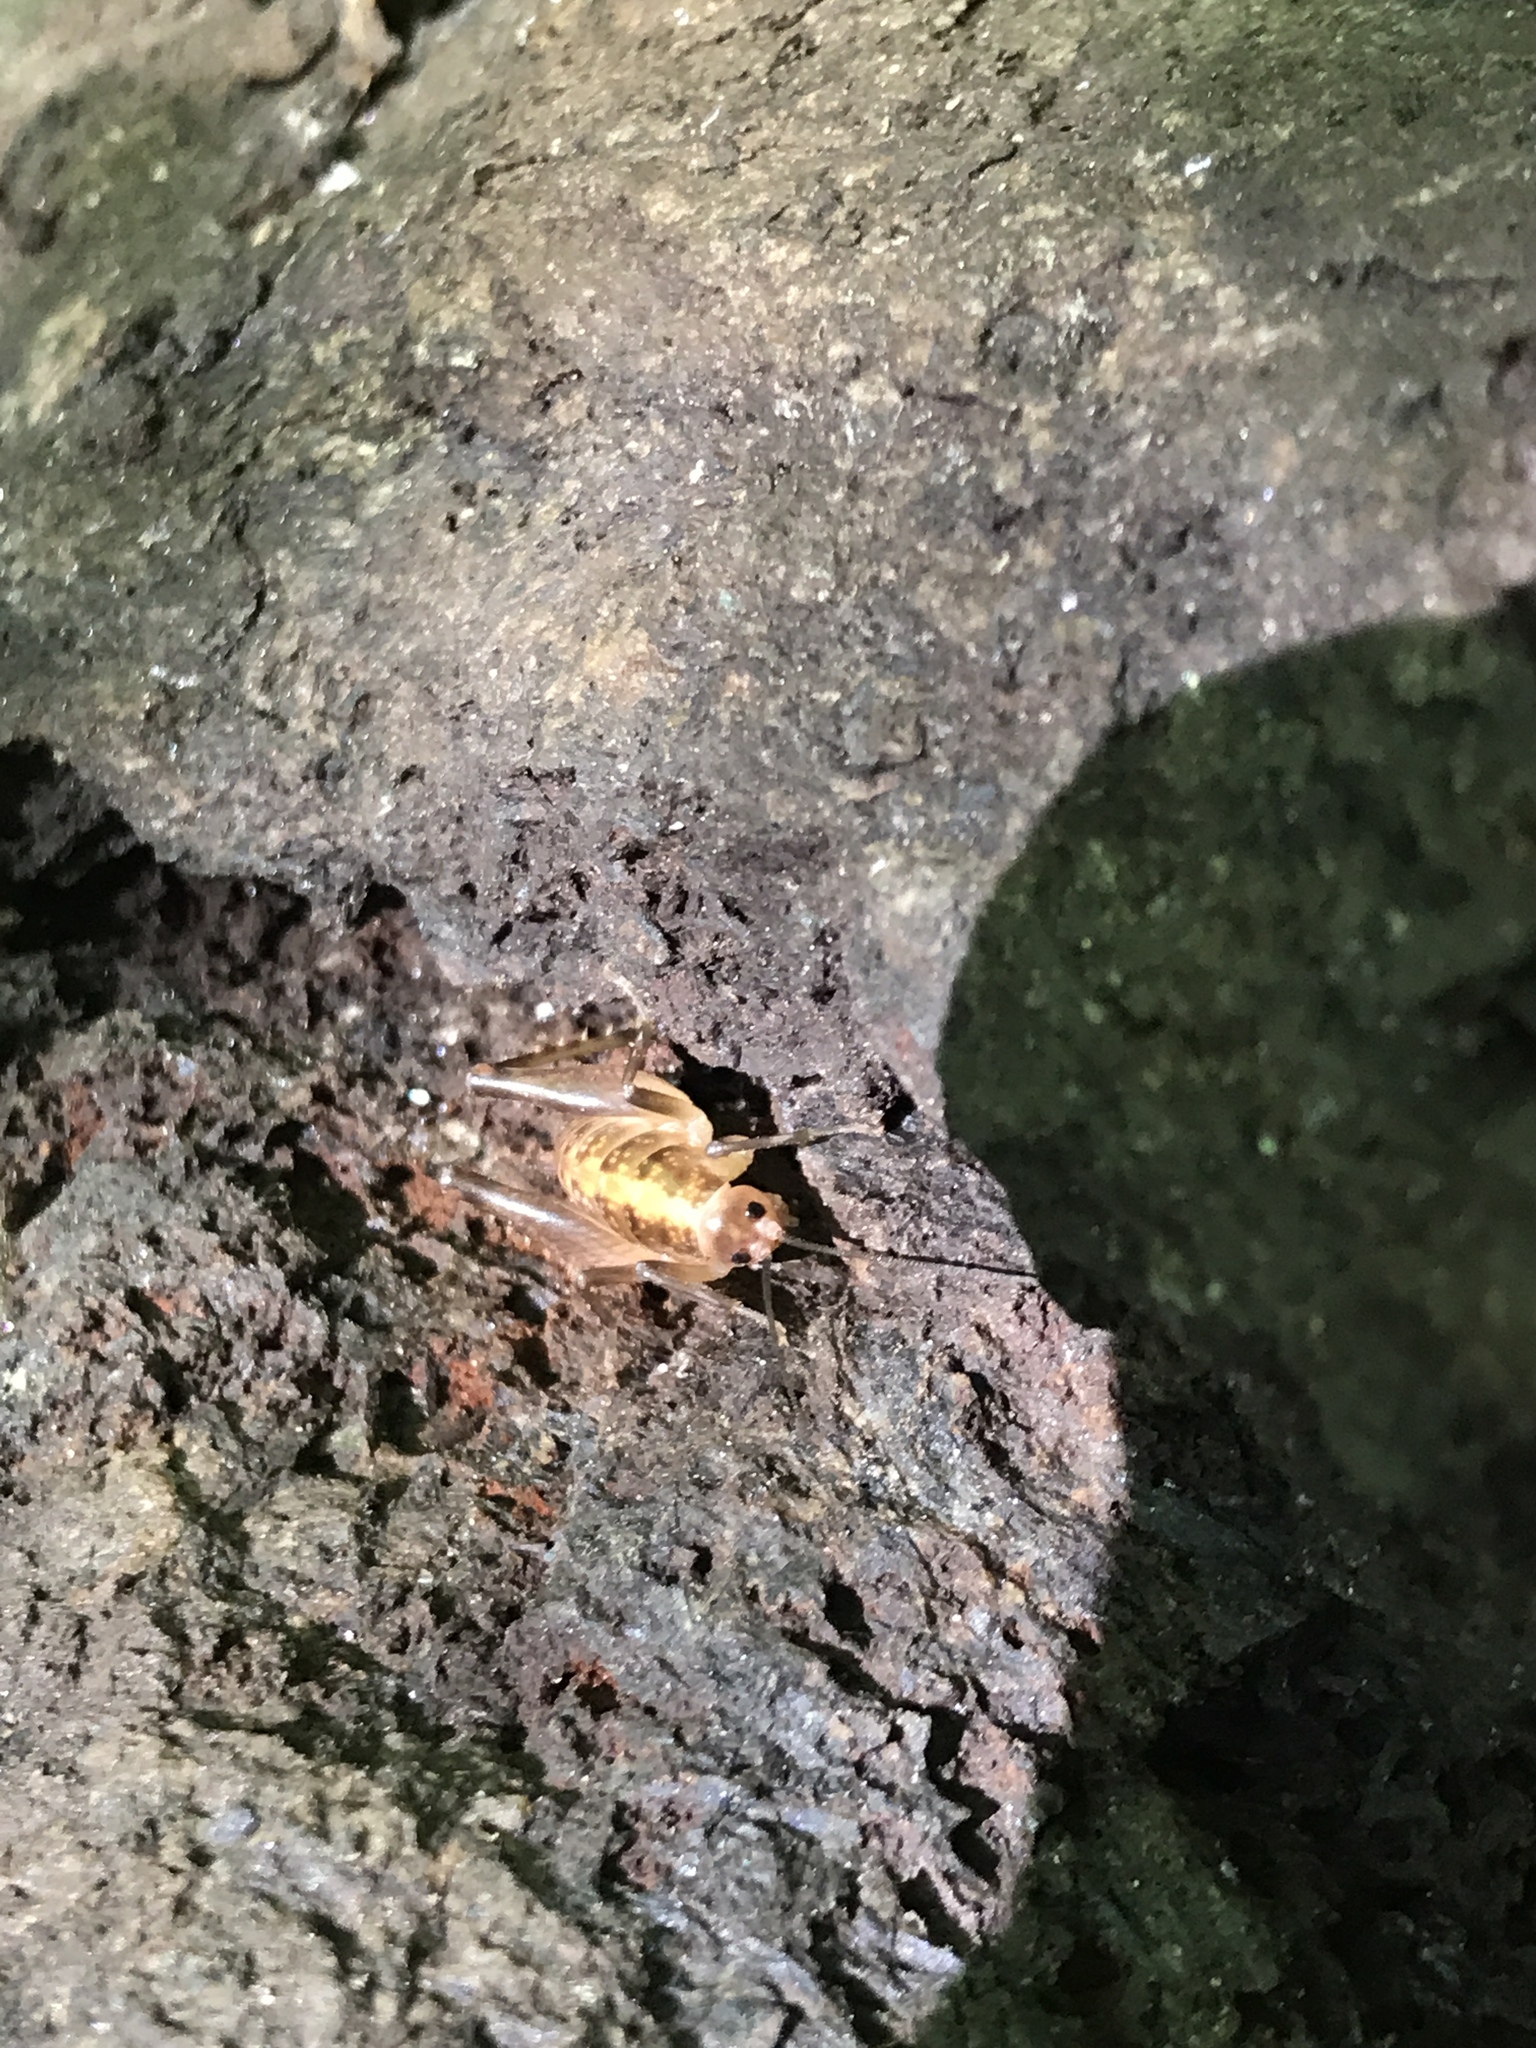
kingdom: Animalia
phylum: Arthropoda
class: Insecta
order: Orthoptera
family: Rhaphidophoridae
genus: Ceuthophilus
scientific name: Ceuthophilus
